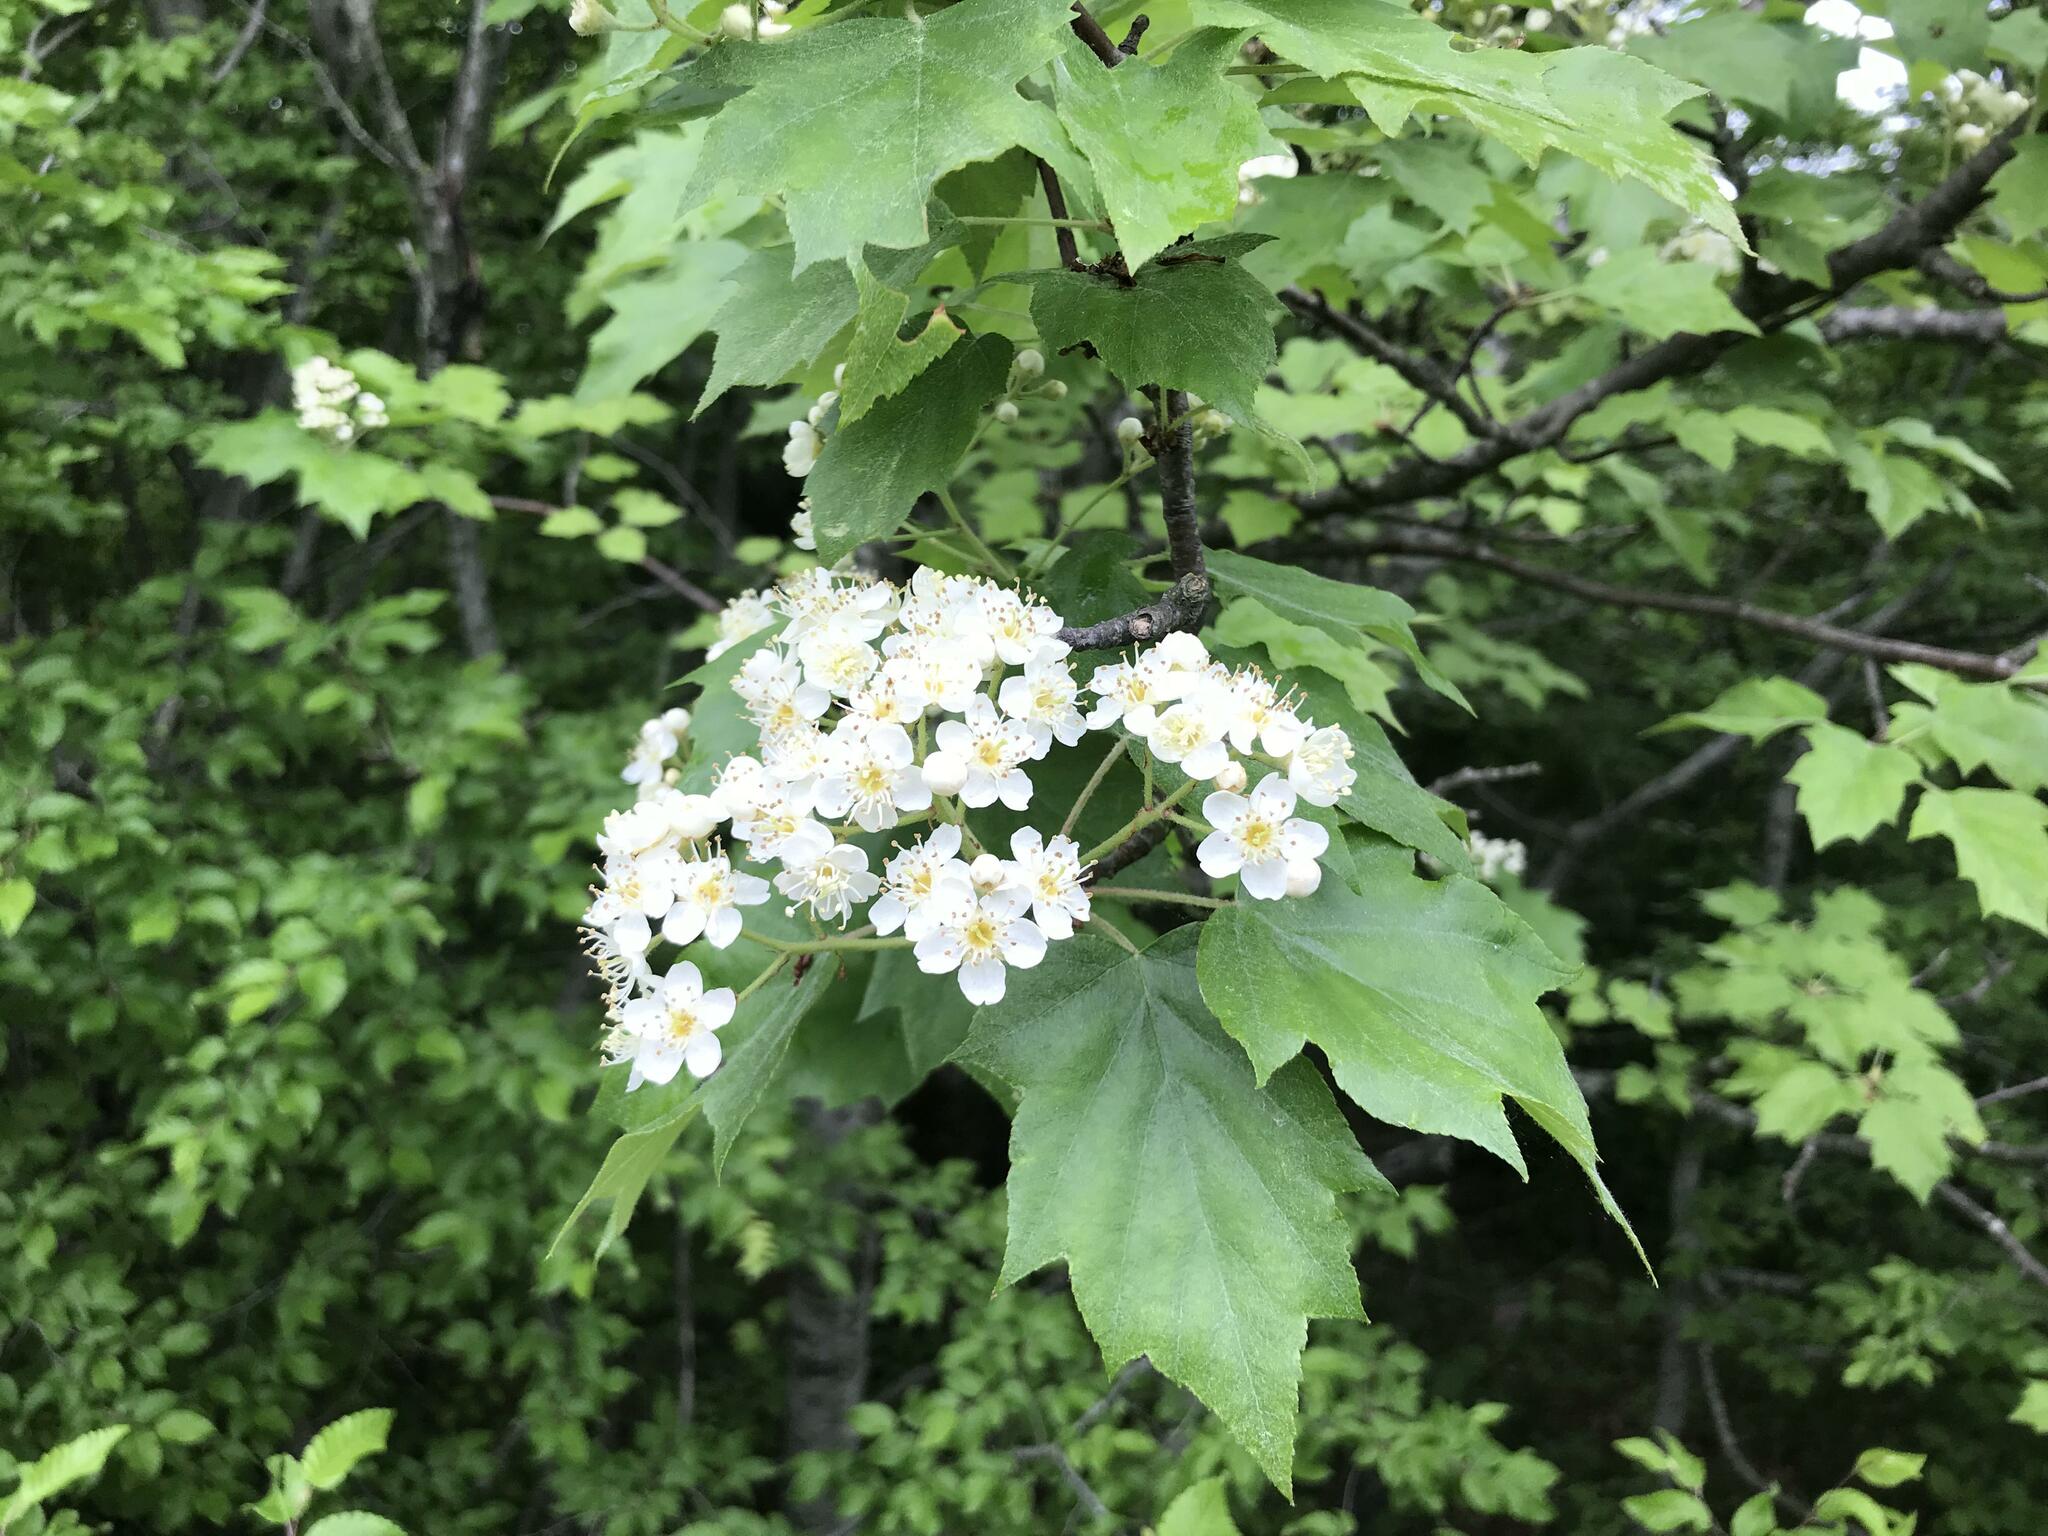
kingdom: Plantae
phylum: Tracheophyta
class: Magnoliopsida
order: Rosales
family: Rosaceae
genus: Torminalis
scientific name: Torminalis glaberrima
